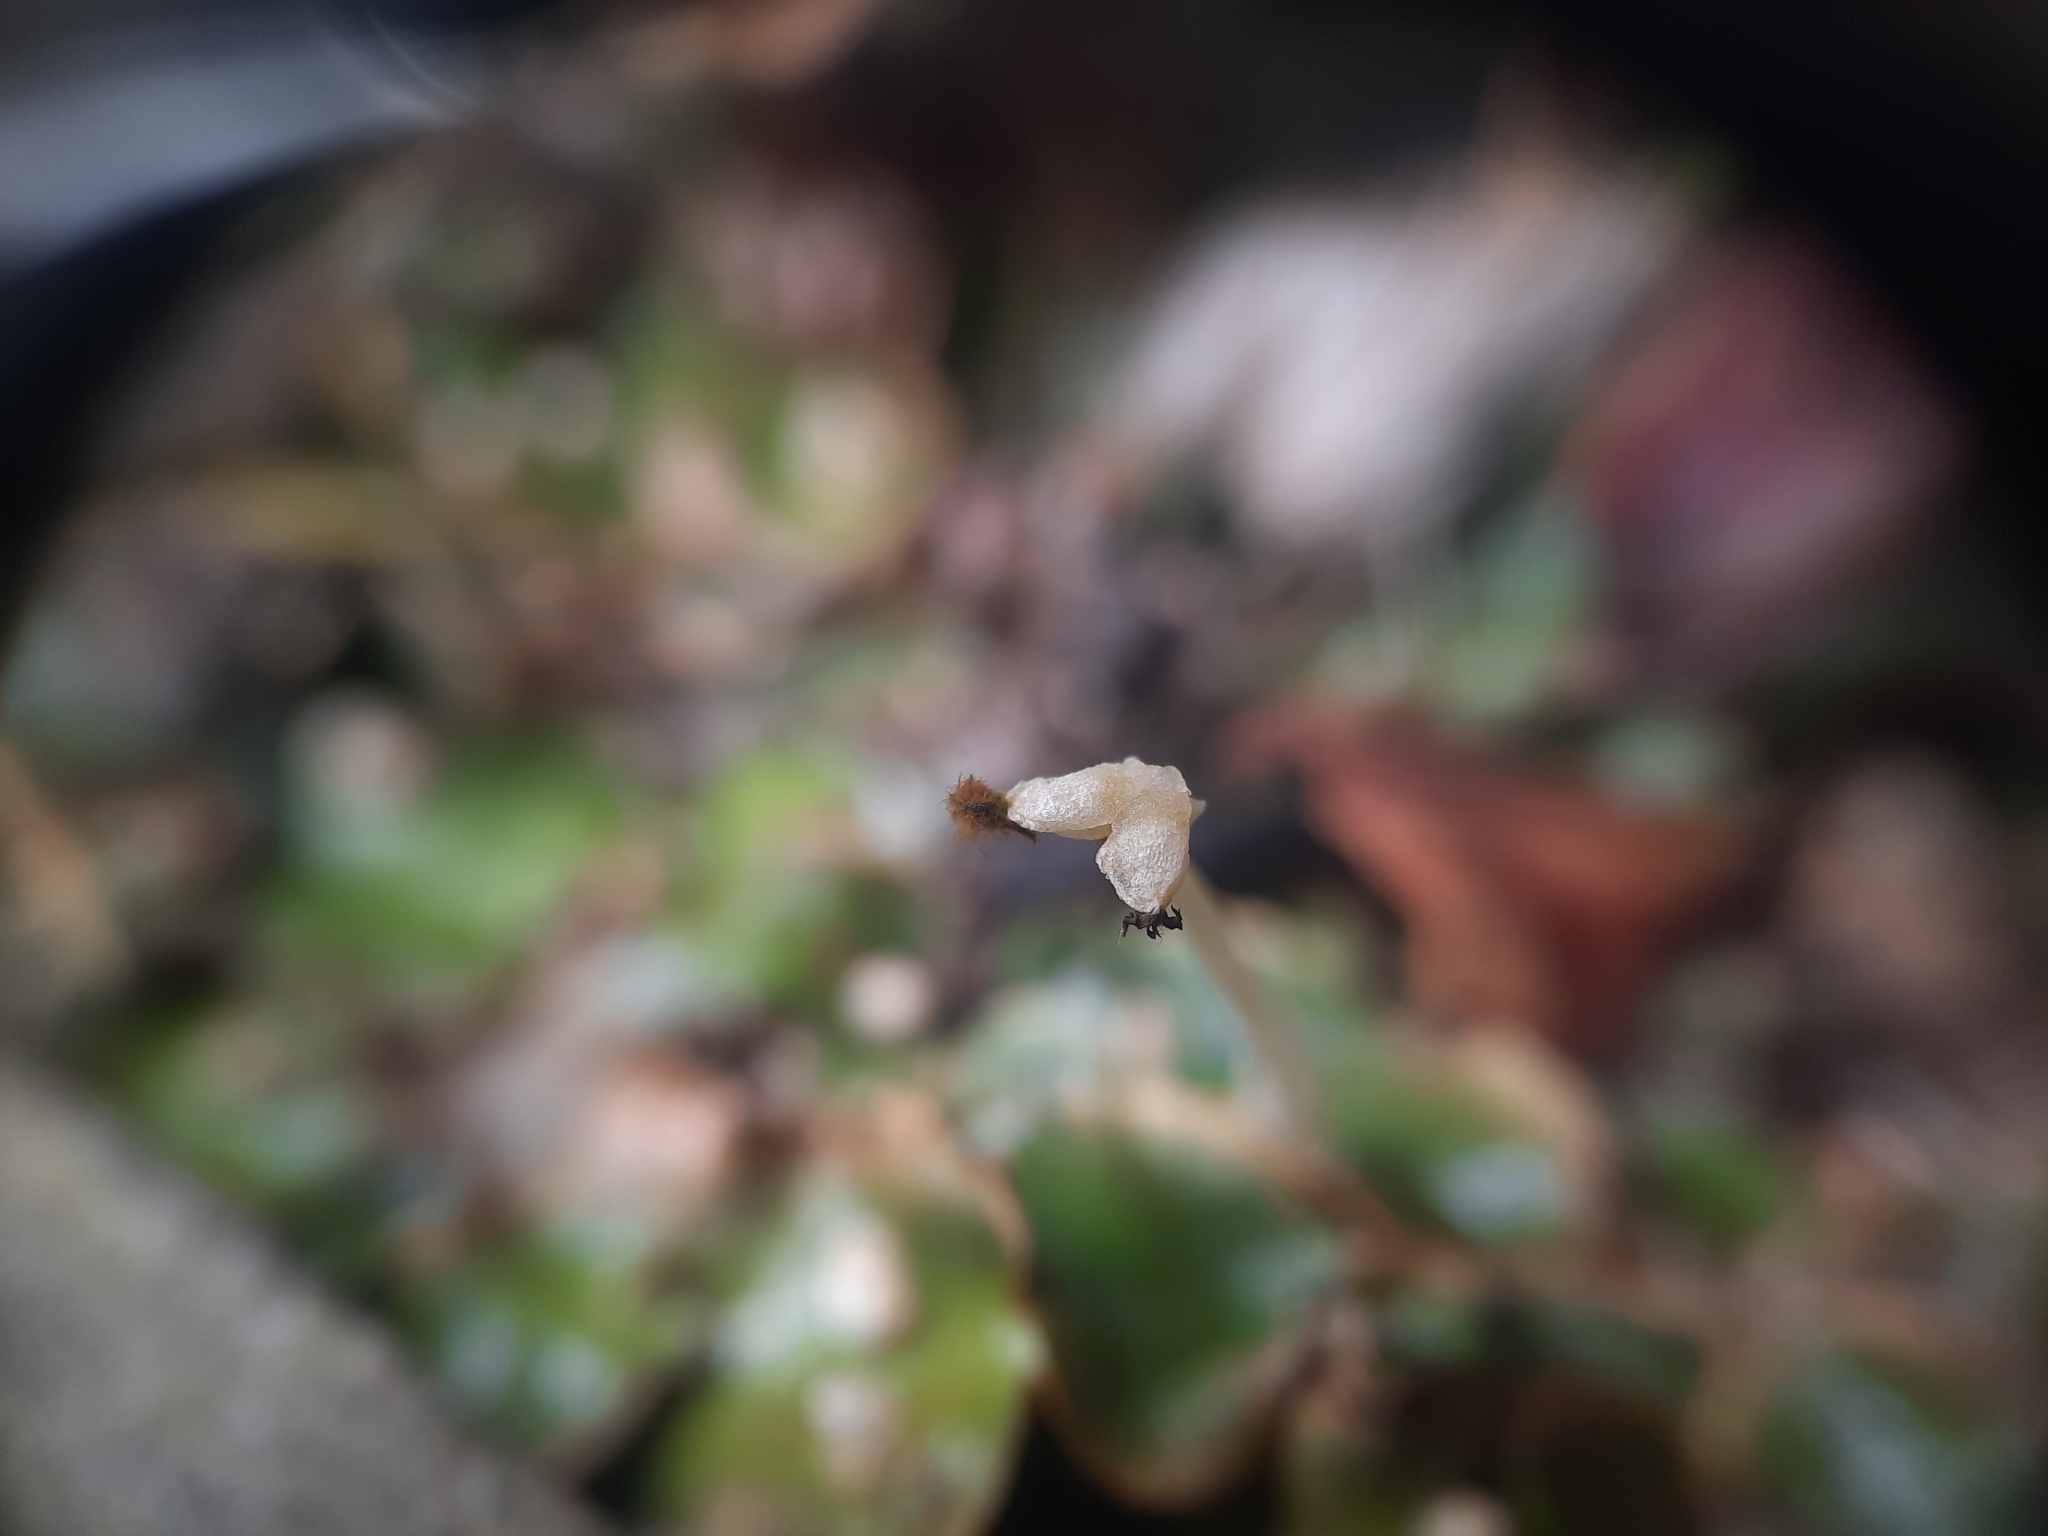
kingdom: Plantae
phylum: Marchantiophyta
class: Marchantiopsida
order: Lunulariales
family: Lunulariaceae
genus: Lunularia
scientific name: Lunularia cruciata
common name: Crescent-cup liverwort
